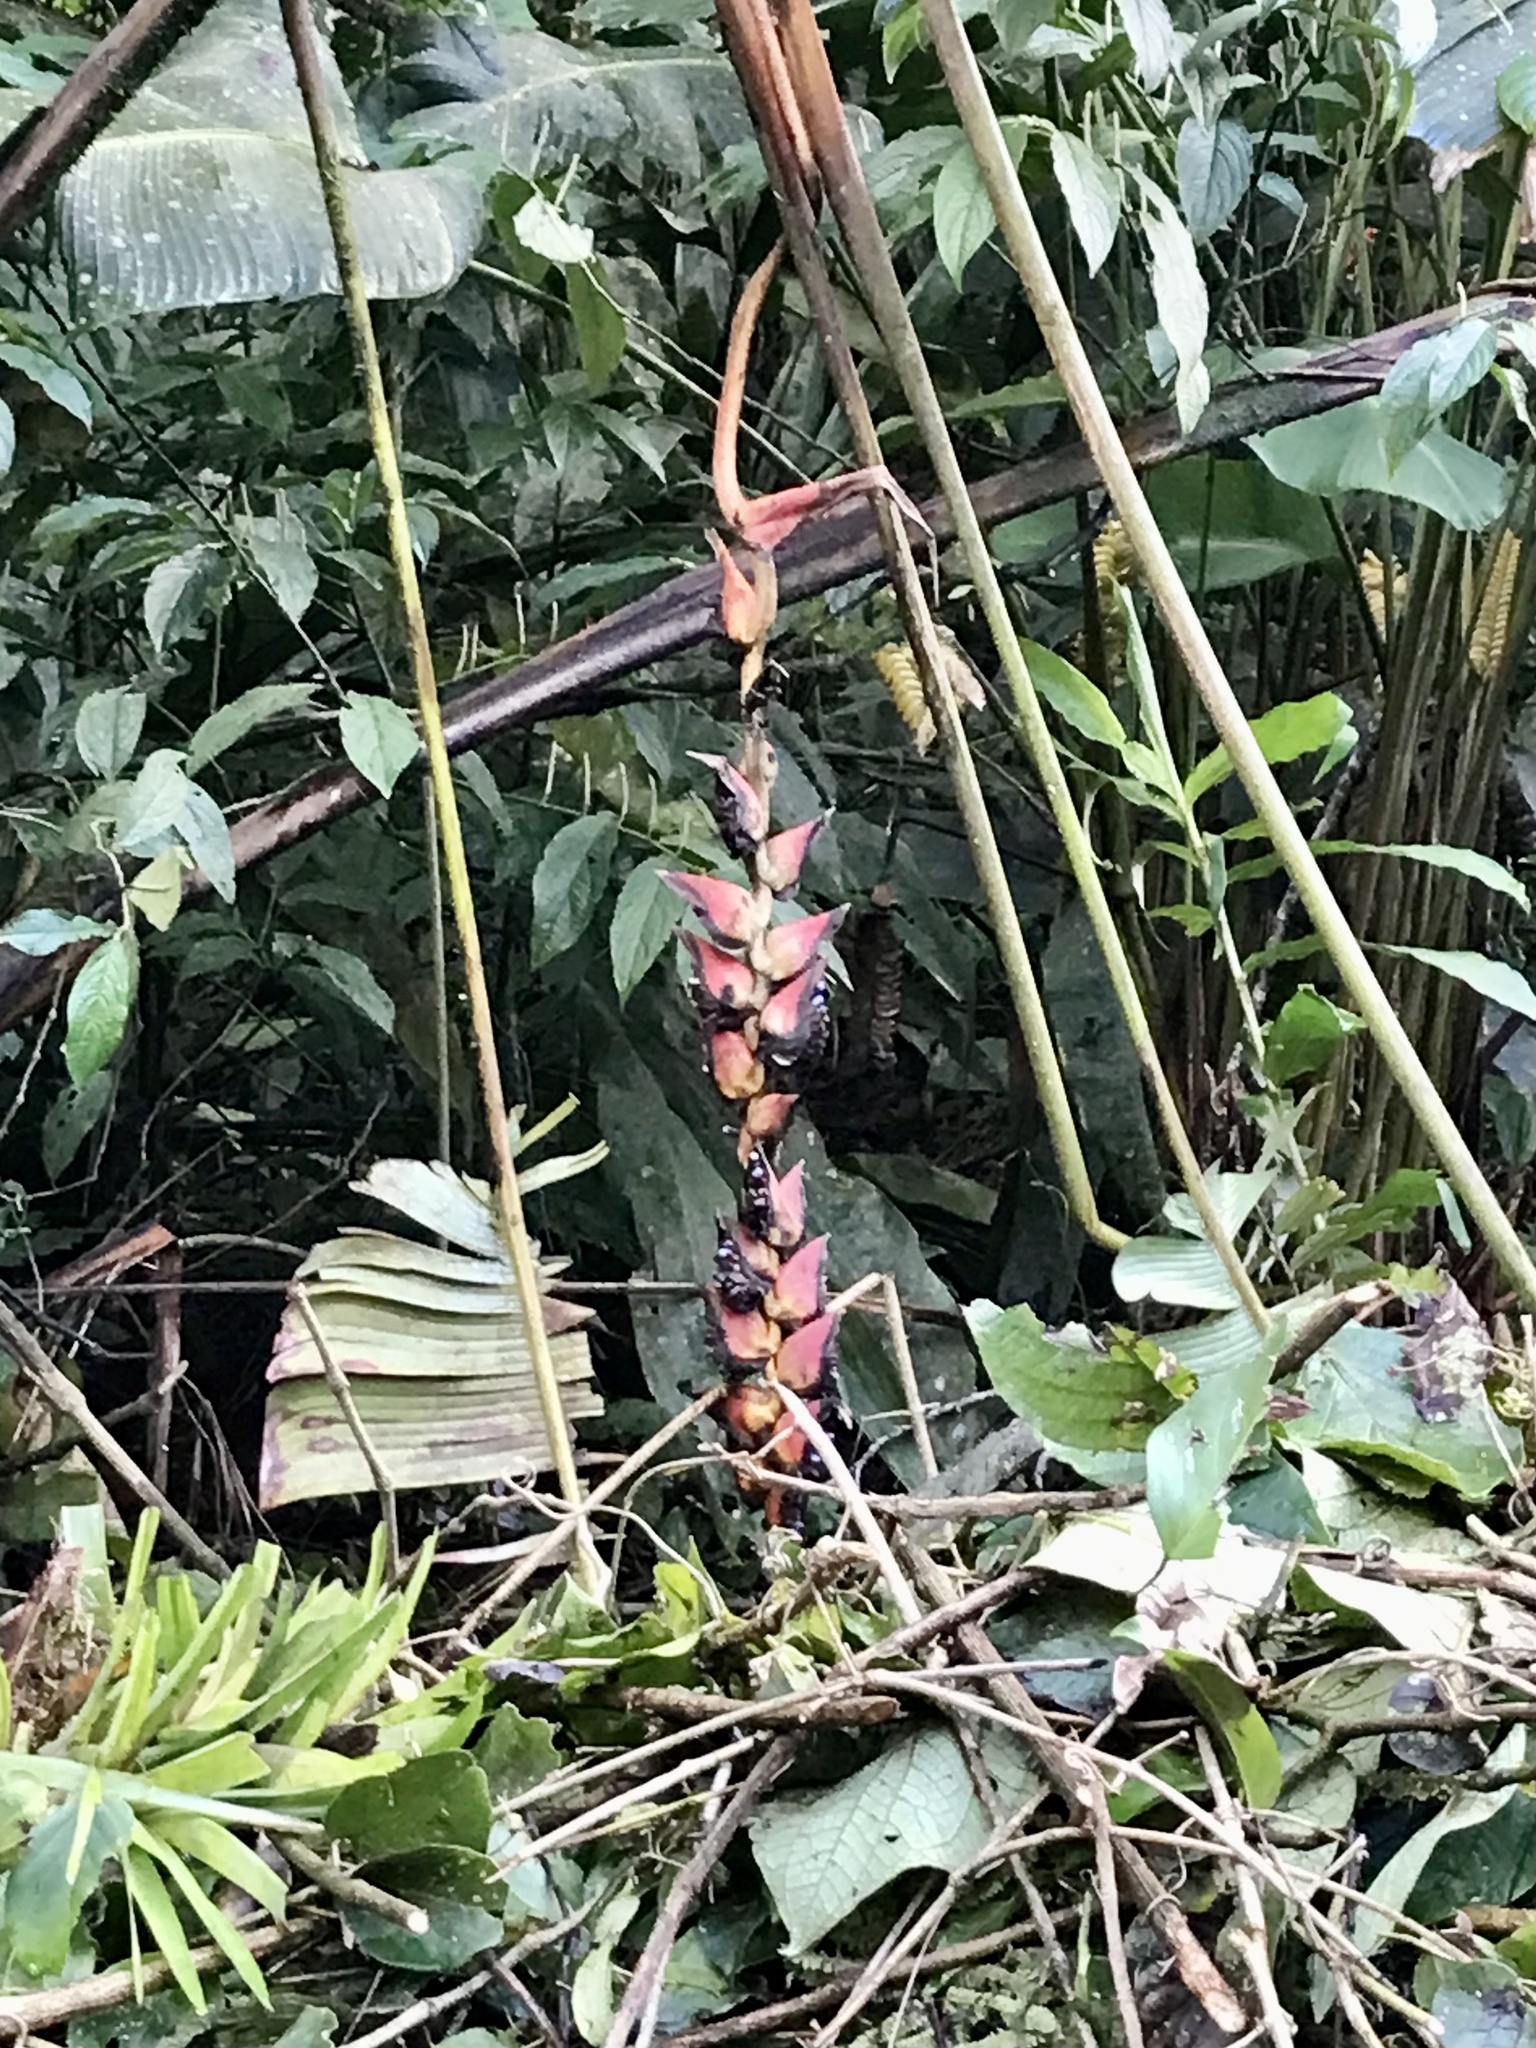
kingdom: Plantae
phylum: Tracheophyta
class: Liliopsida
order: Zingiberales
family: Heliconiaceae
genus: Heliconia
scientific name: Heliconia pogonantha
